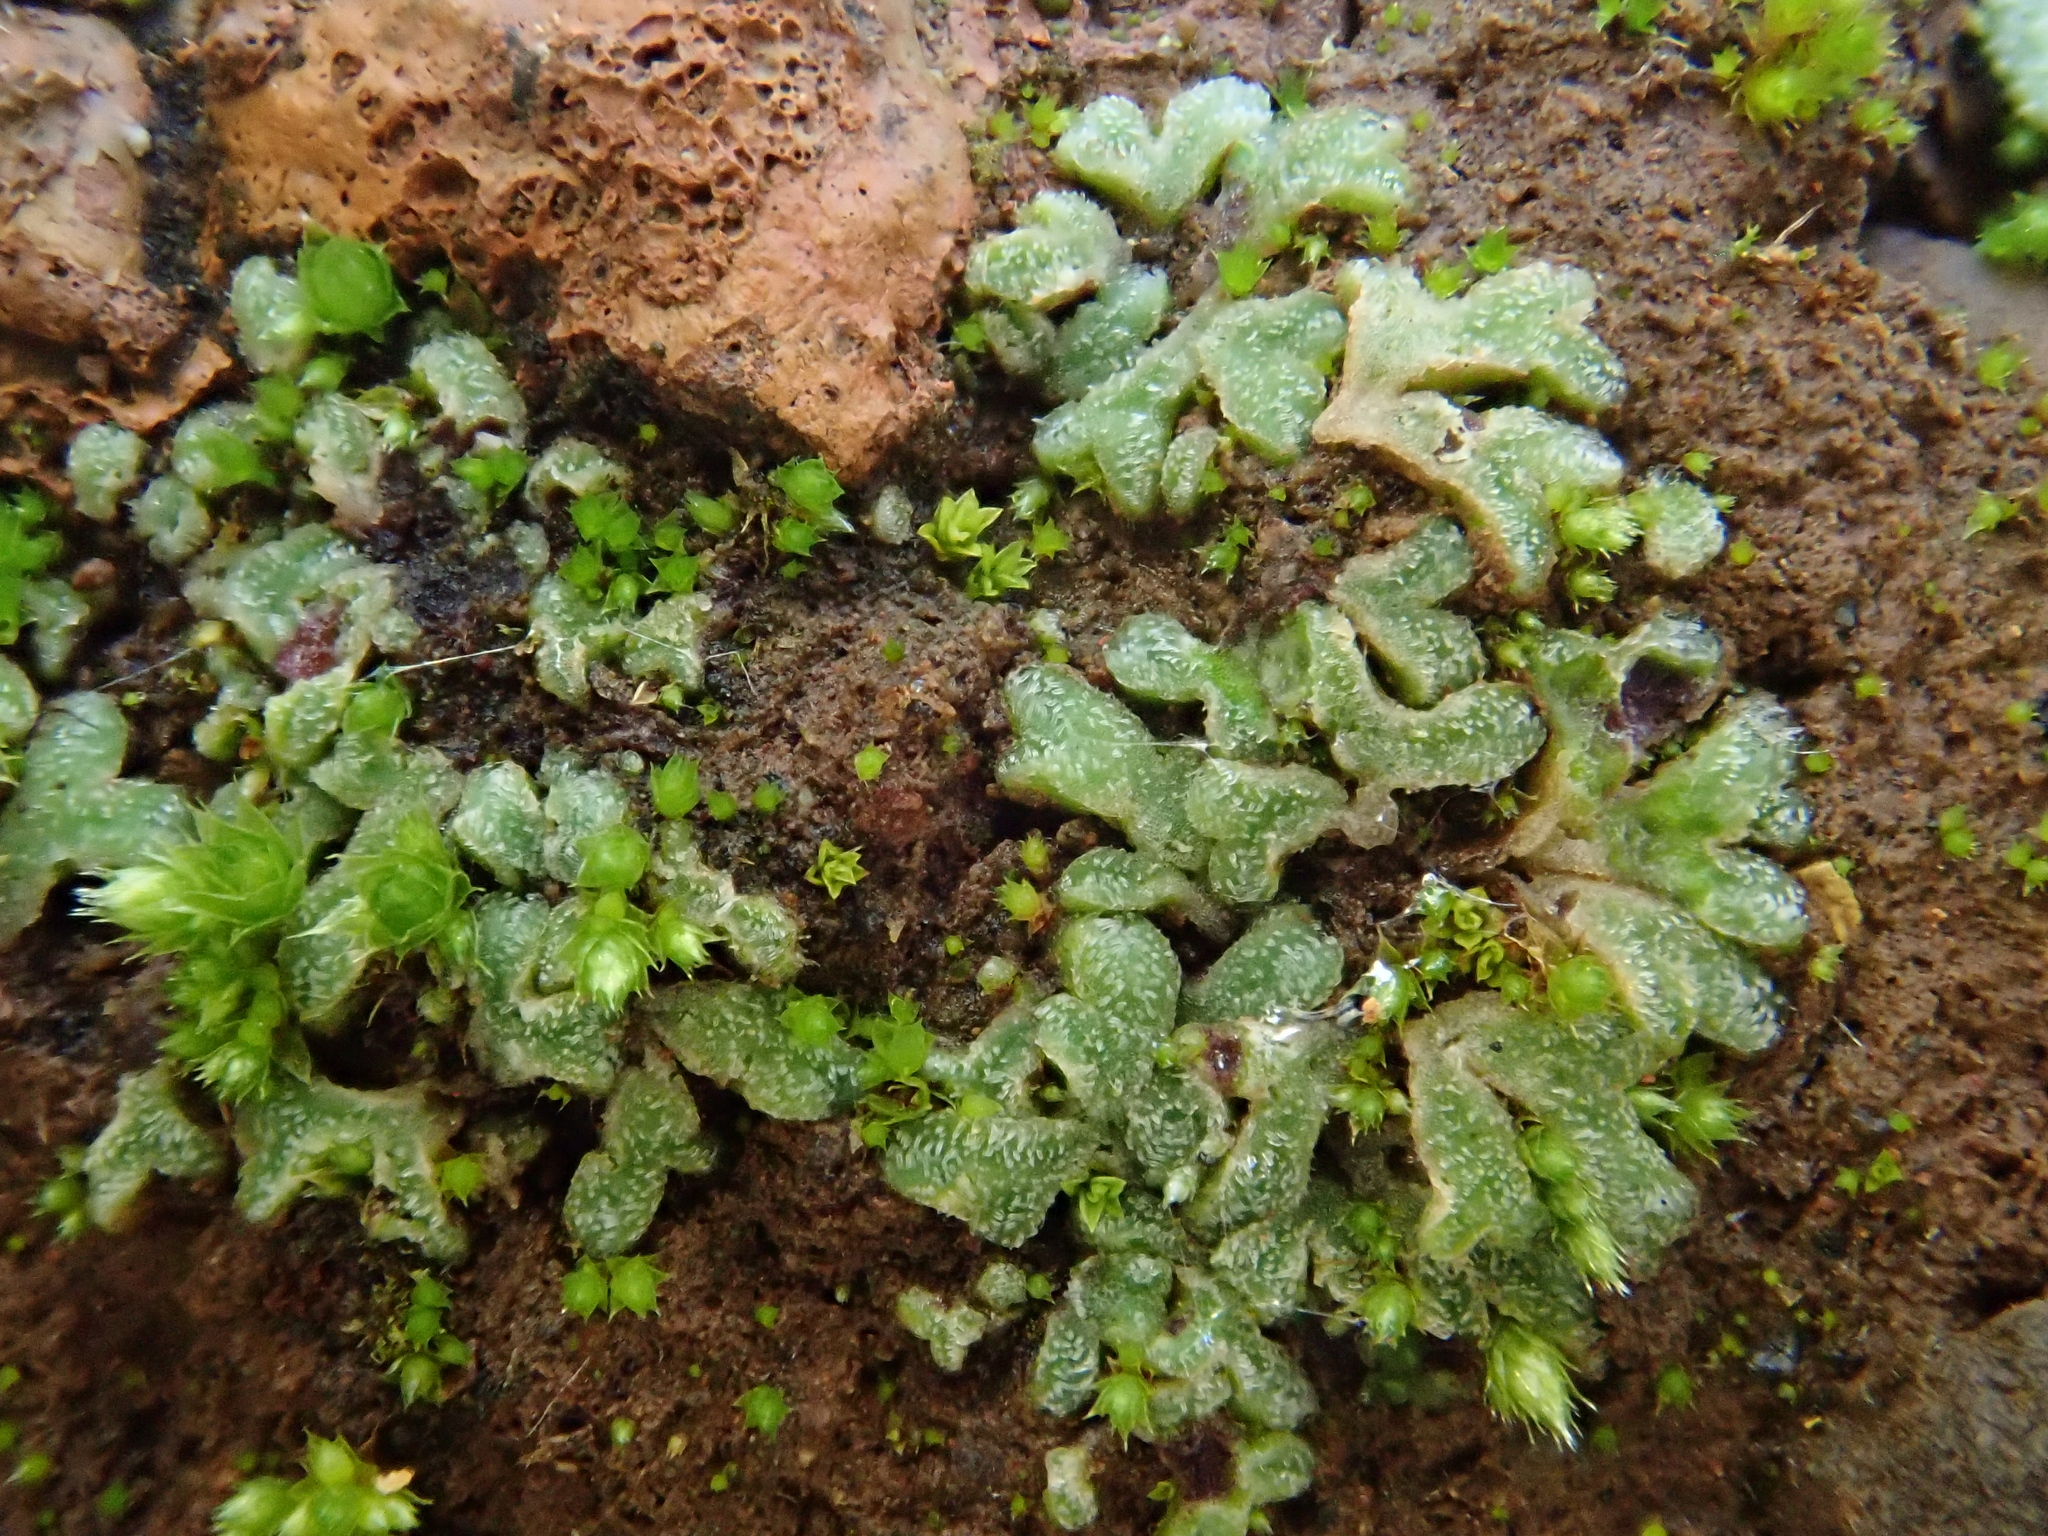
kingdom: Plantae
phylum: Marchantiophyta
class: Marchantiopsida
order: Marchantiales
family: Ricciaceae
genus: Riccia
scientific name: Riccia papillosa
